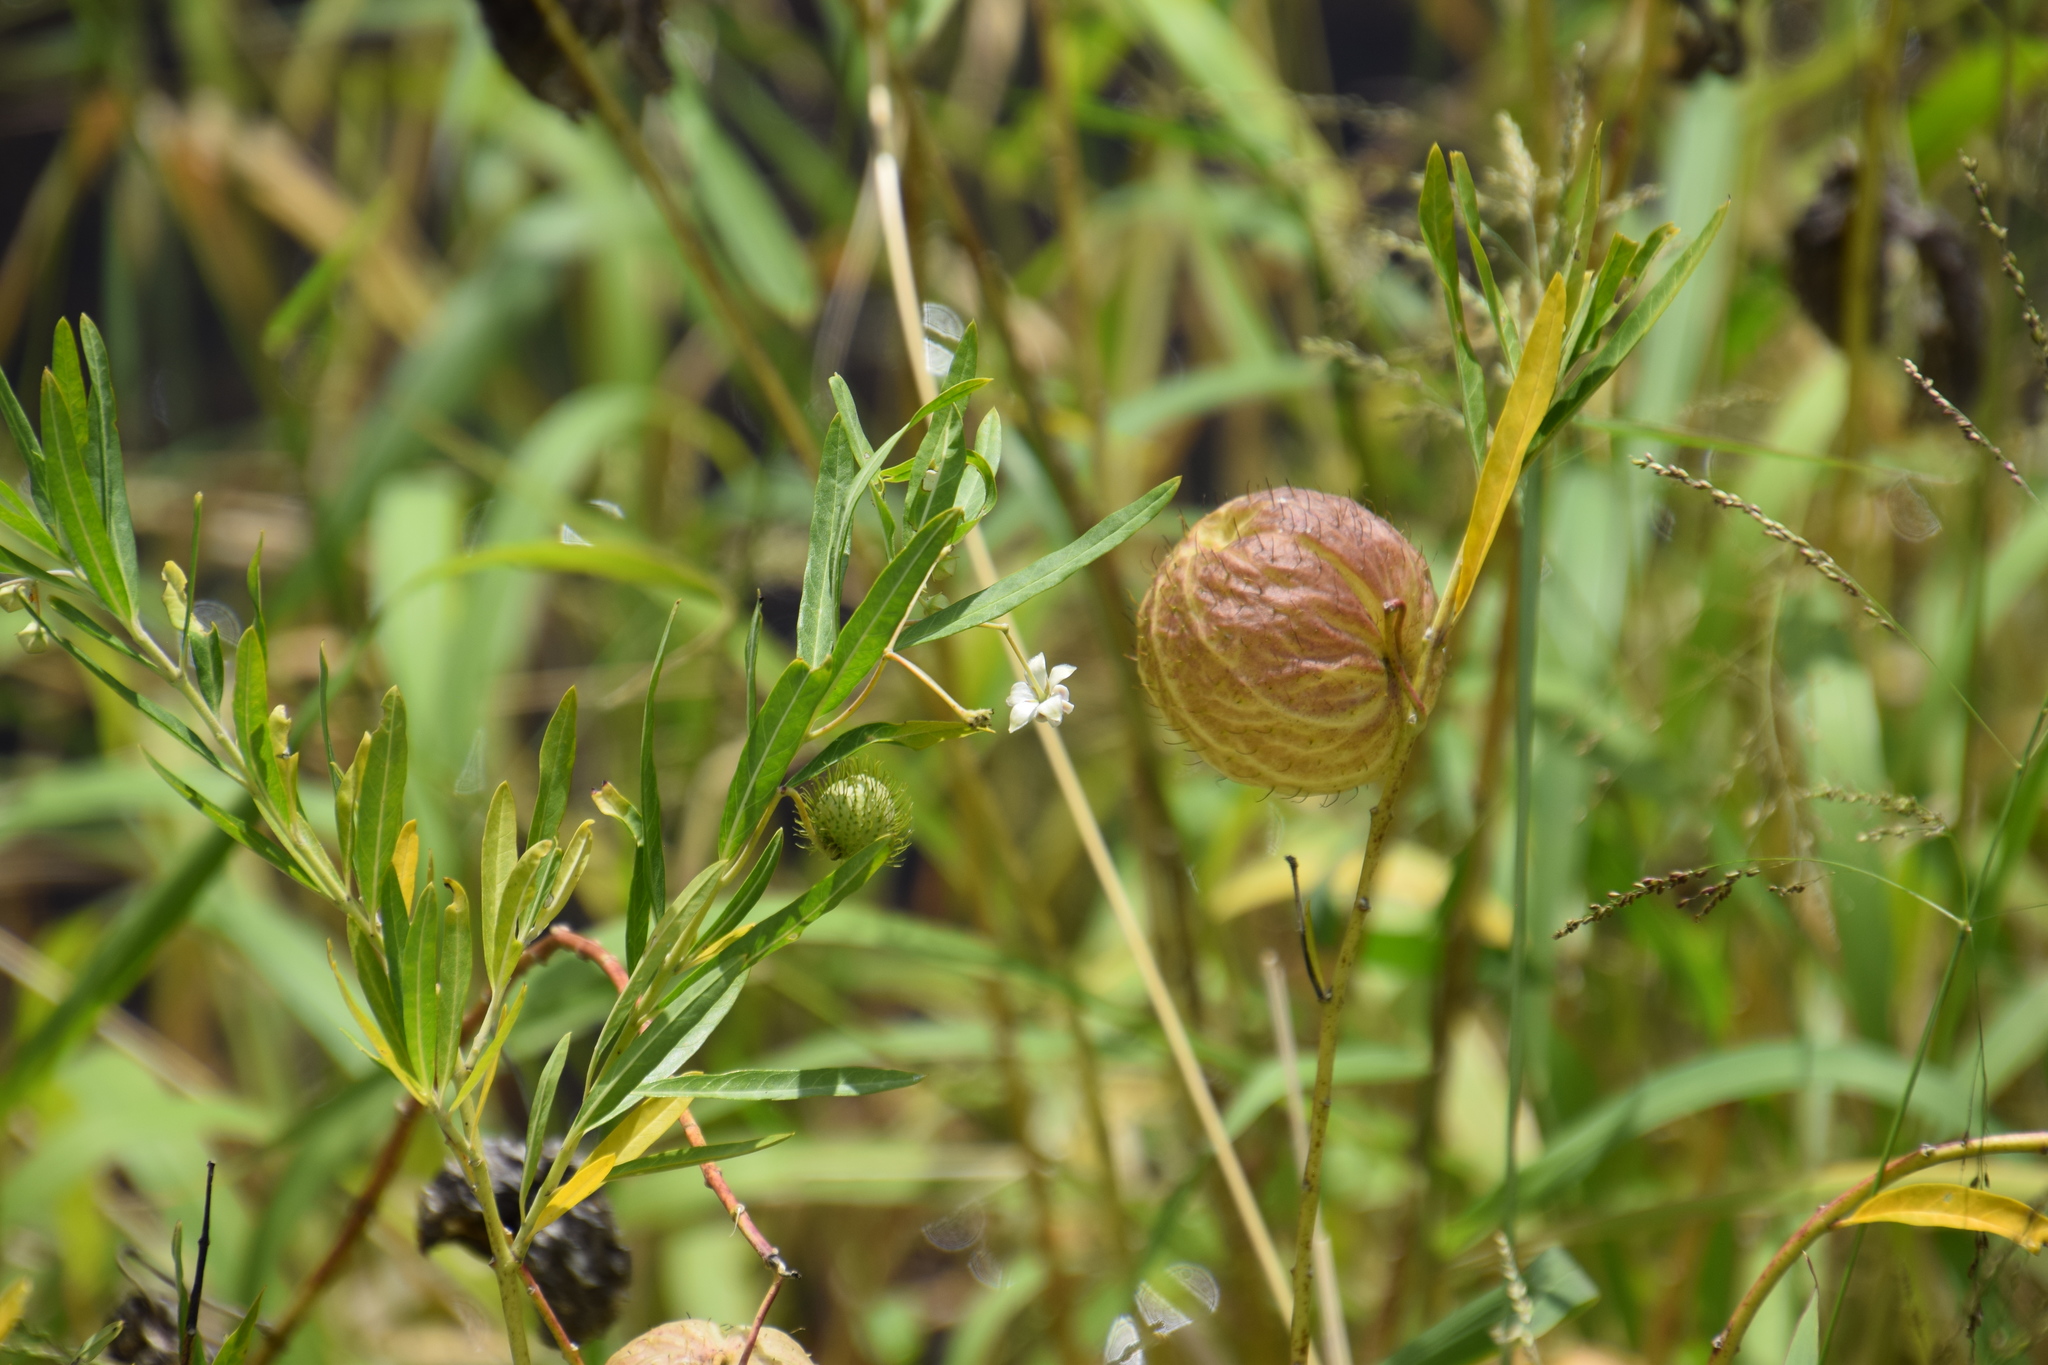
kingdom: Plantae
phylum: Tracheophyta
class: Magnoliopsida
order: Gentianales
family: Apocynaceae
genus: Gomphocarpus
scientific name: Gomphocarpus physocarpus
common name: Balloon cotton bush
